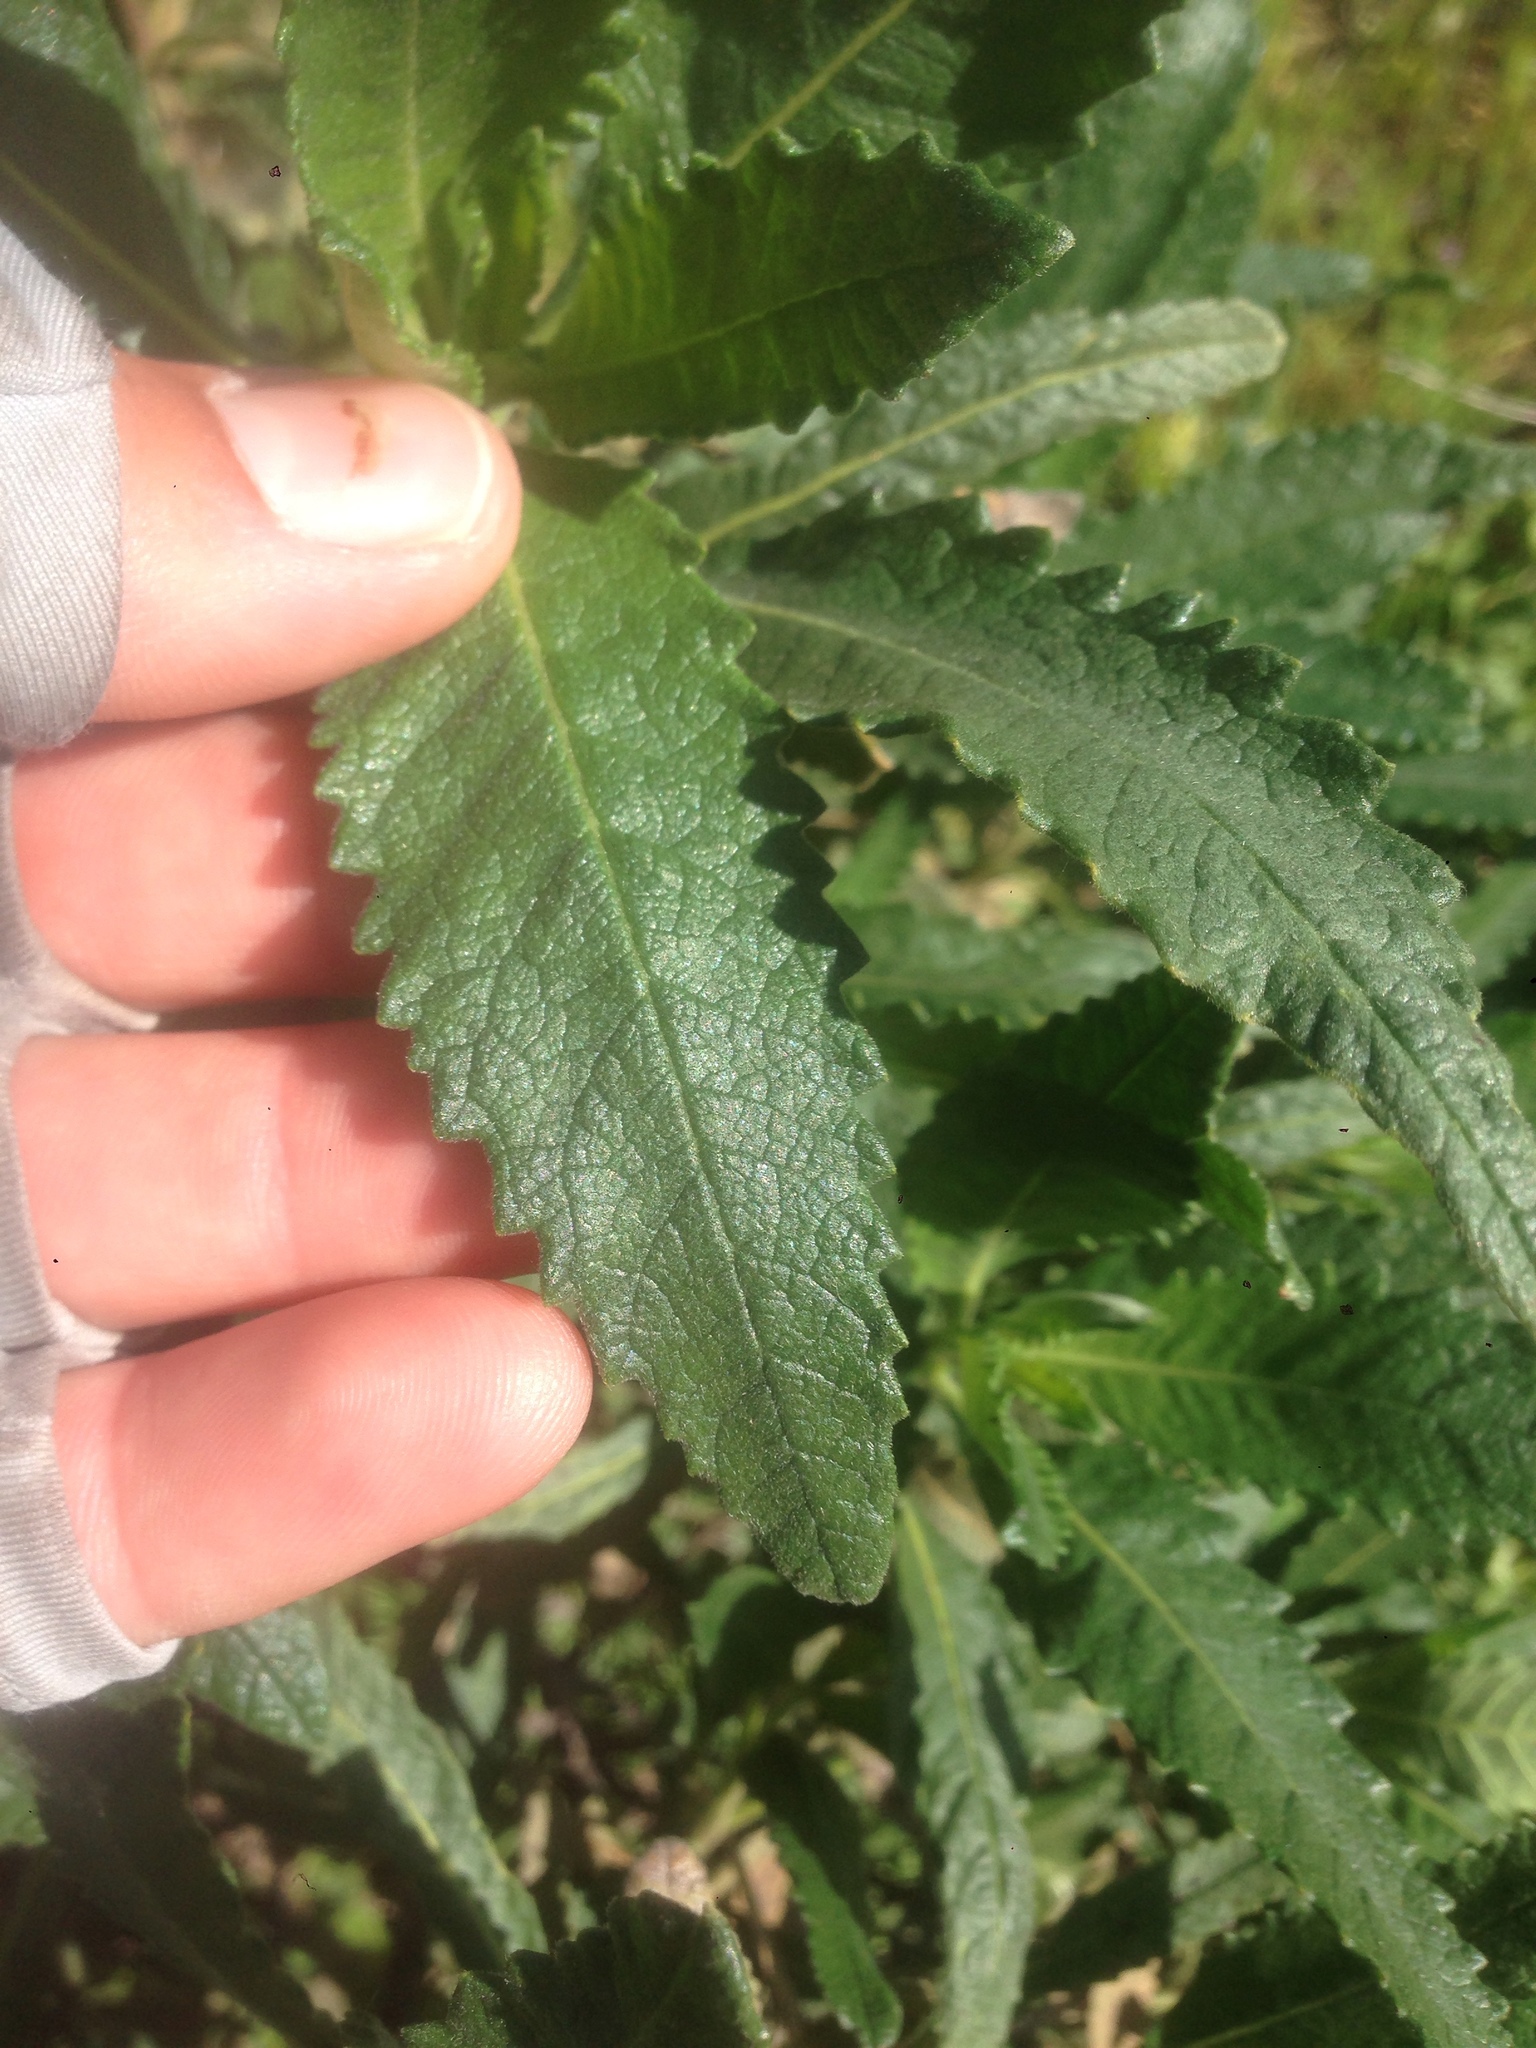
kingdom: Plantae
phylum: Tracheophyta
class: Magnoliopsida
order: Boraginales
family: Namaceae
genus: Eriodictyon
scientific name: Eriodictyon crassifolium
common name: Thick-leaf yerba-santa
